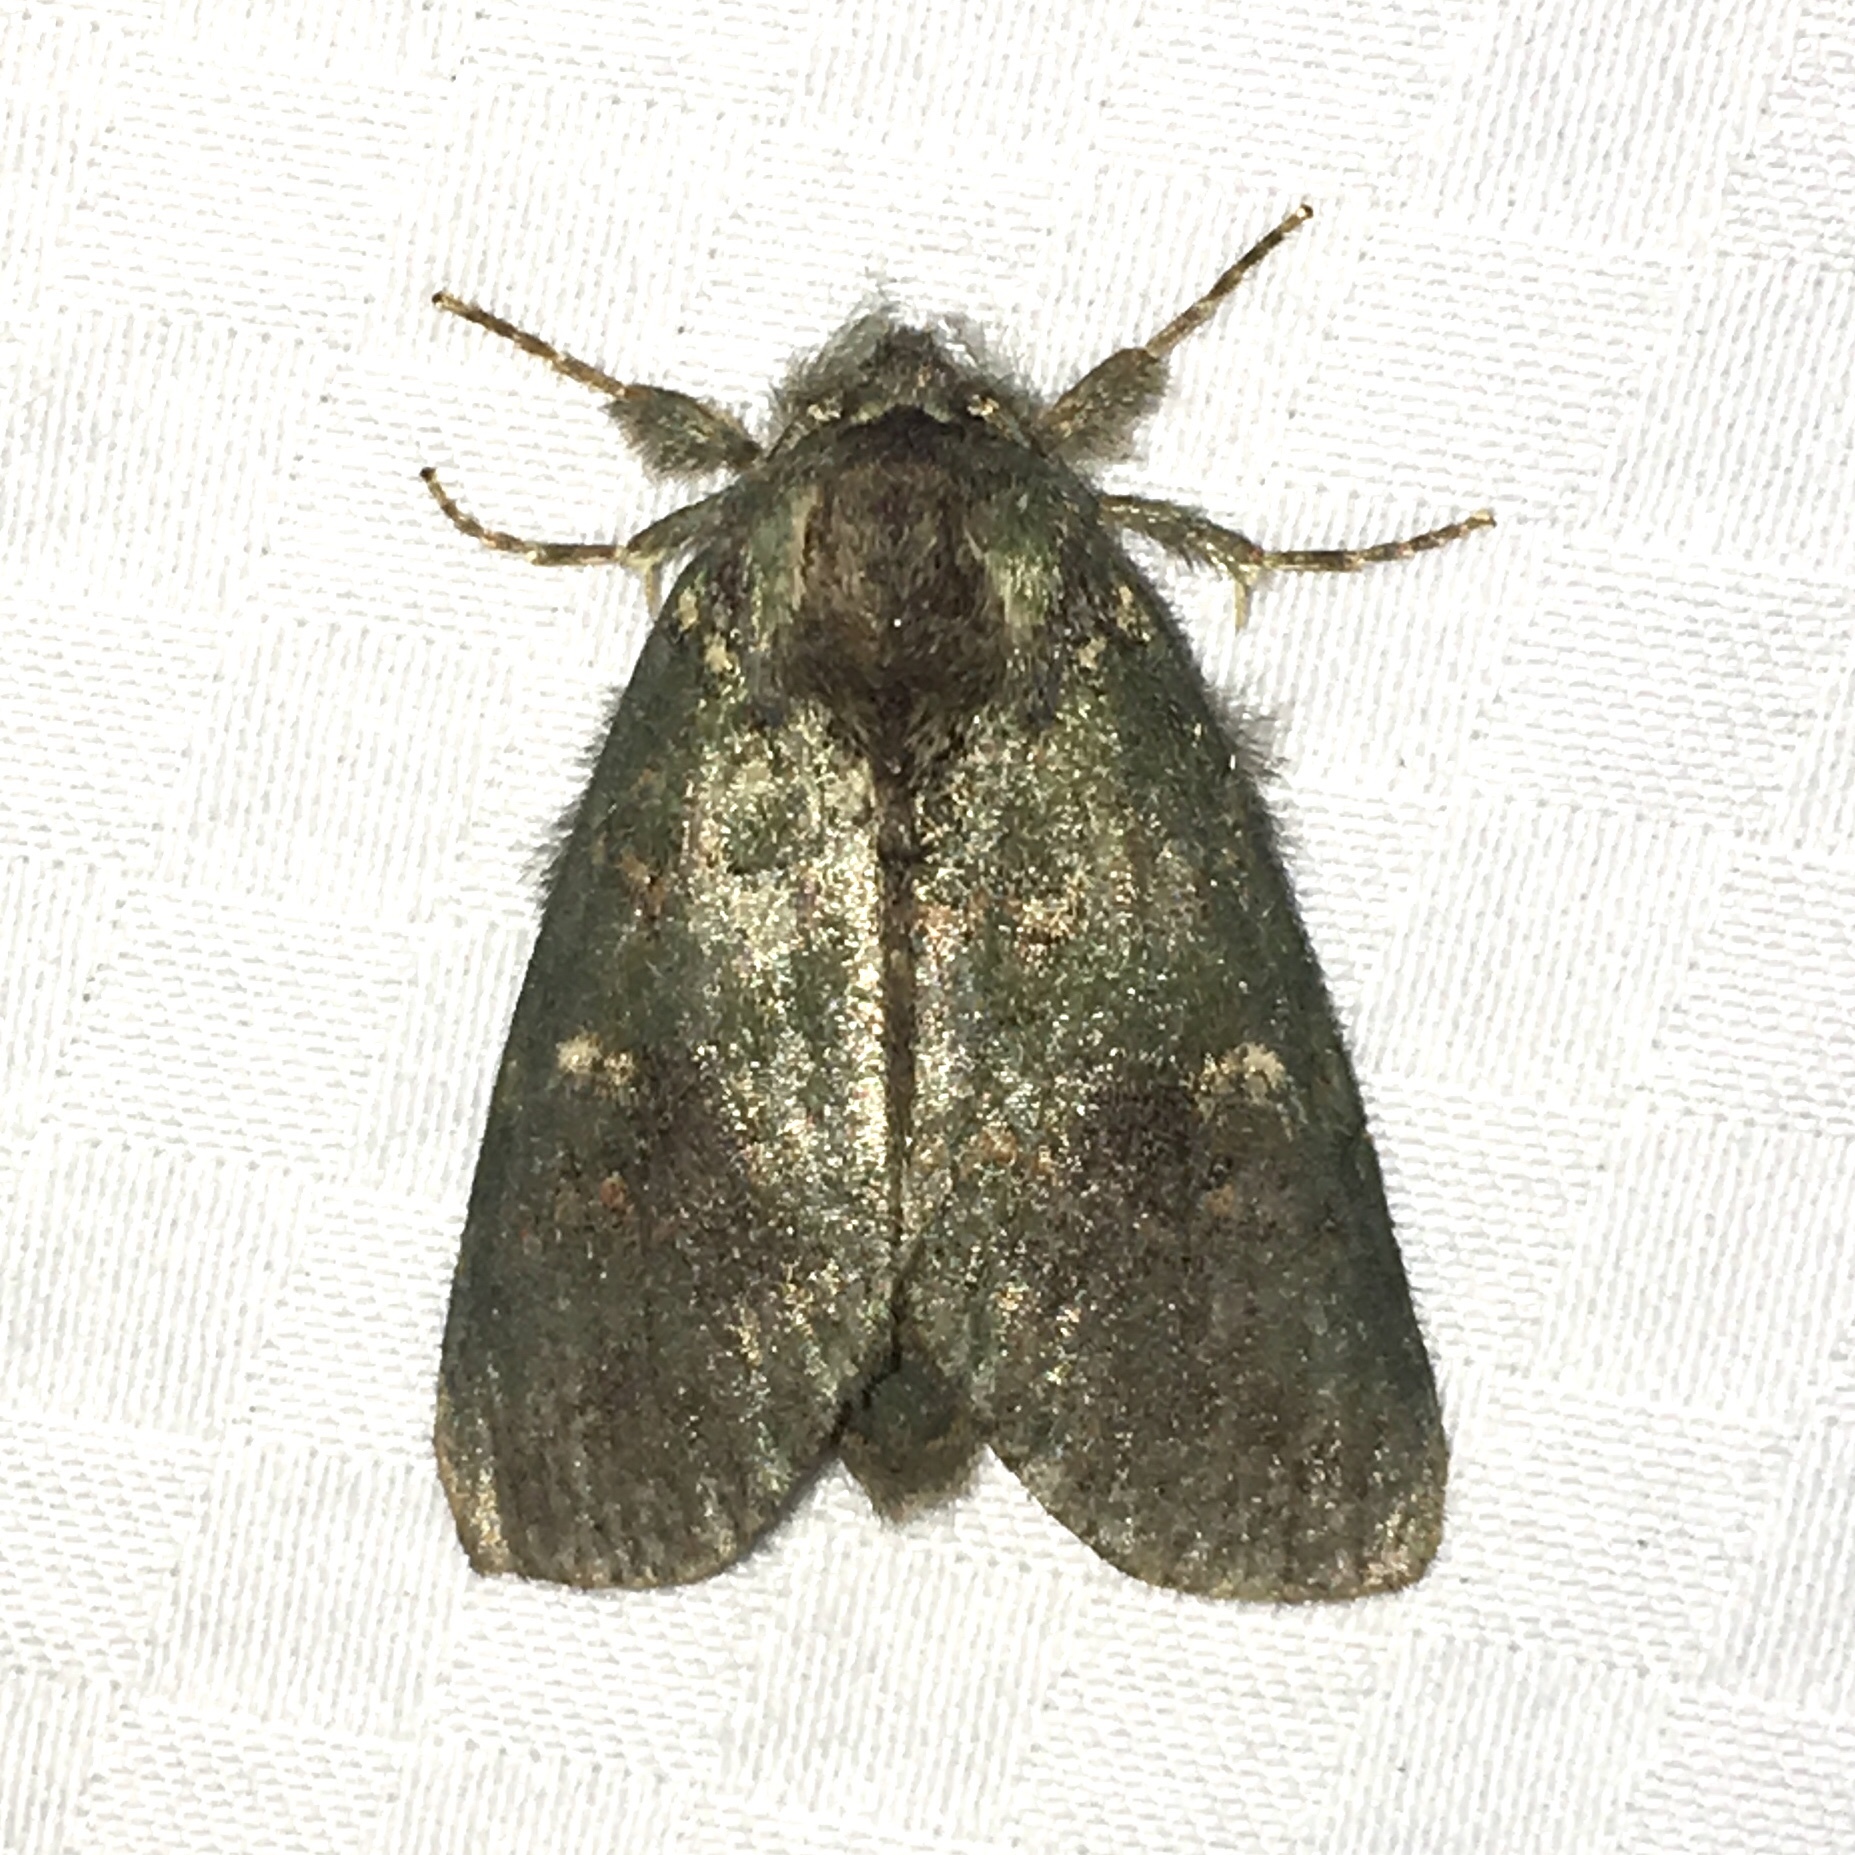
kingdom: Animalia
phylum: Arthropoda
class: Insecta
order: Lepidoptera
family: Notodontidae
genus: Disphragis
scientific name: Disphragis Cecrita biundata
